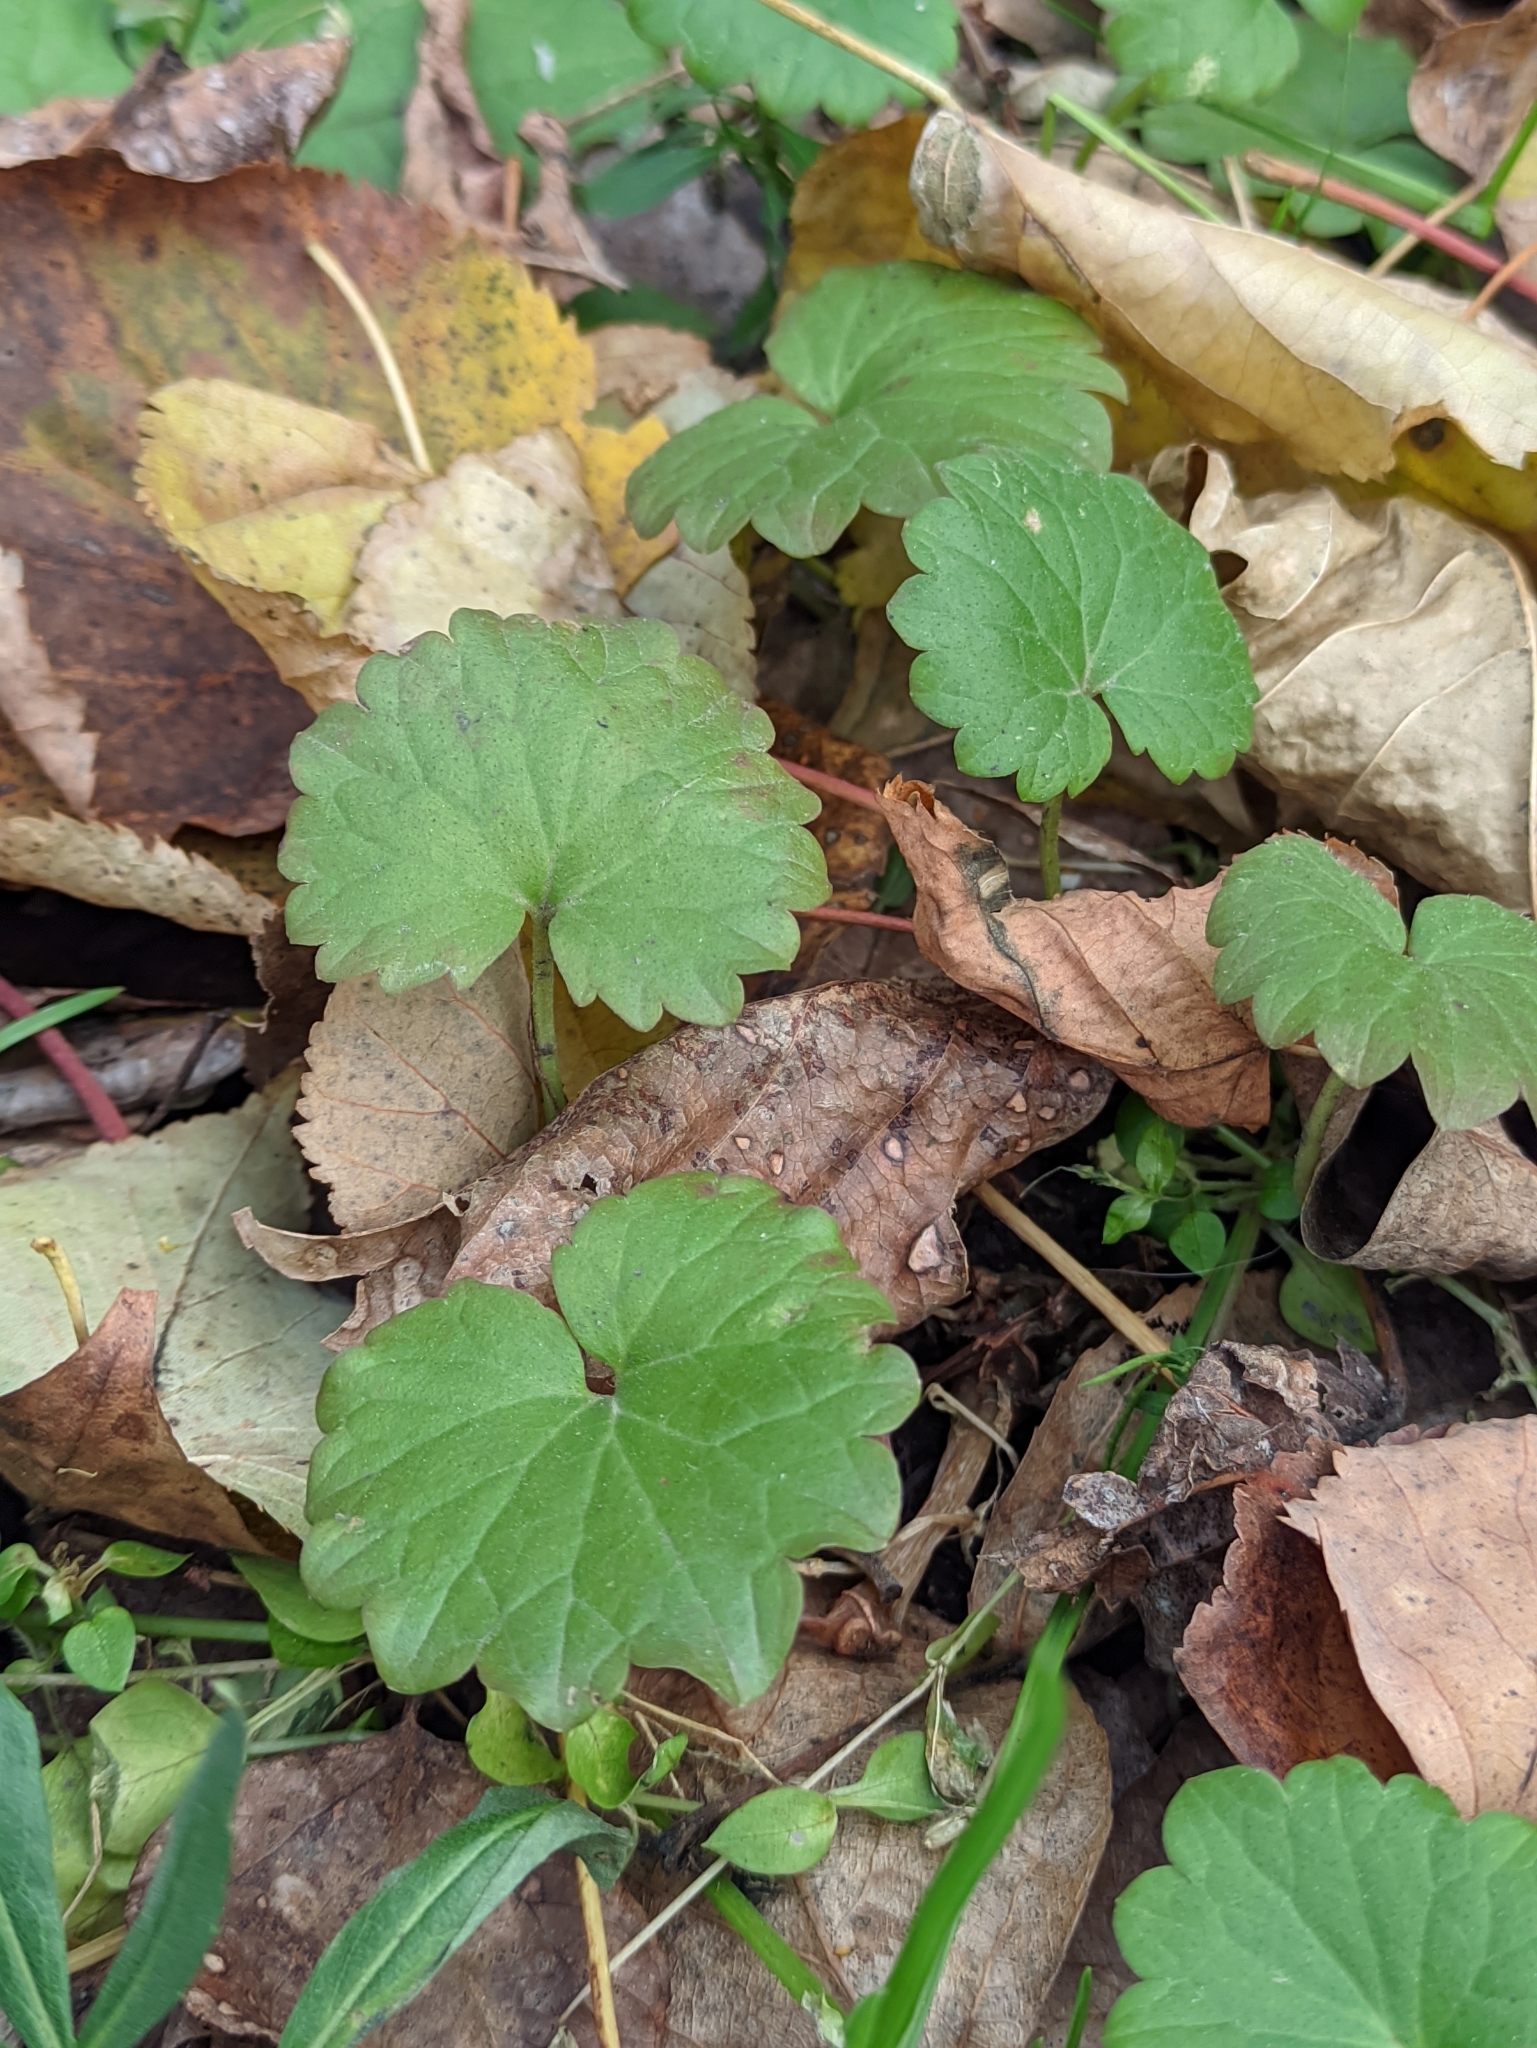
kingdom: Plantae
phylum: Tracheophyta
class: Magnoliopsida
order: Lamiales
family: Lamiaceae
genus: Glechoma
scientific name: Glechoma hederacea
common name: Ground ivy
